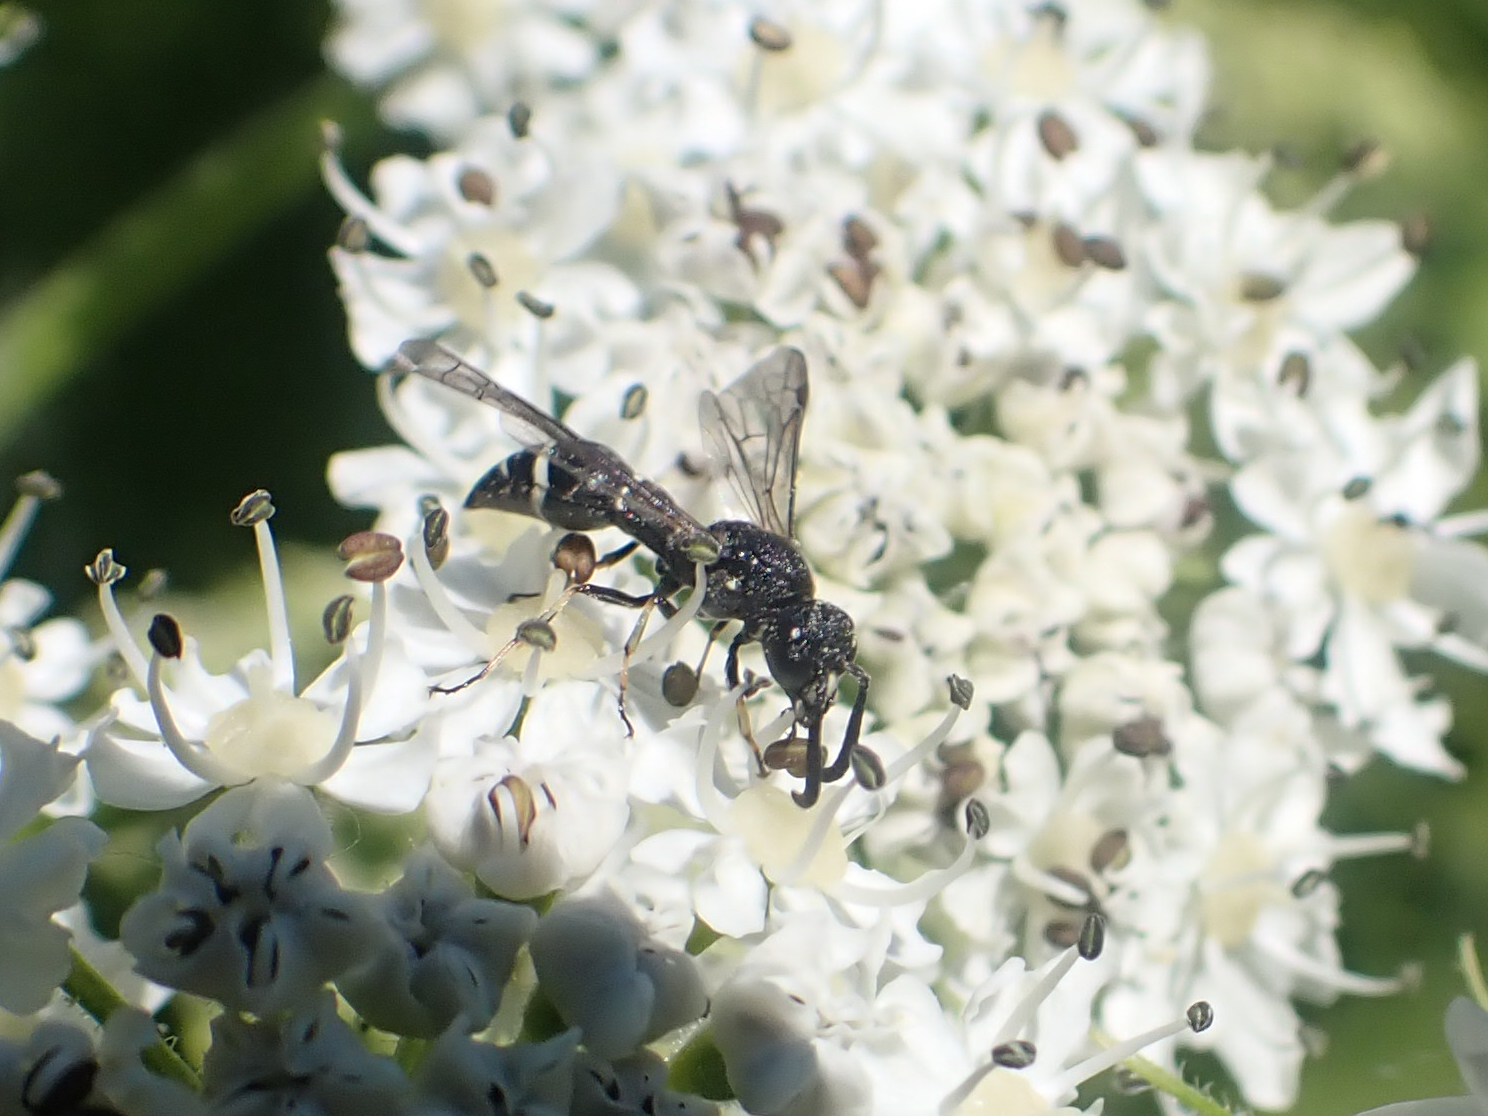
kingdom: Animalia
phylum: Arthropoda
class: Insecta
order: Hymenoptera
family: Eumenidae
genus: Symmorphus
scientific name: Symmorphus
